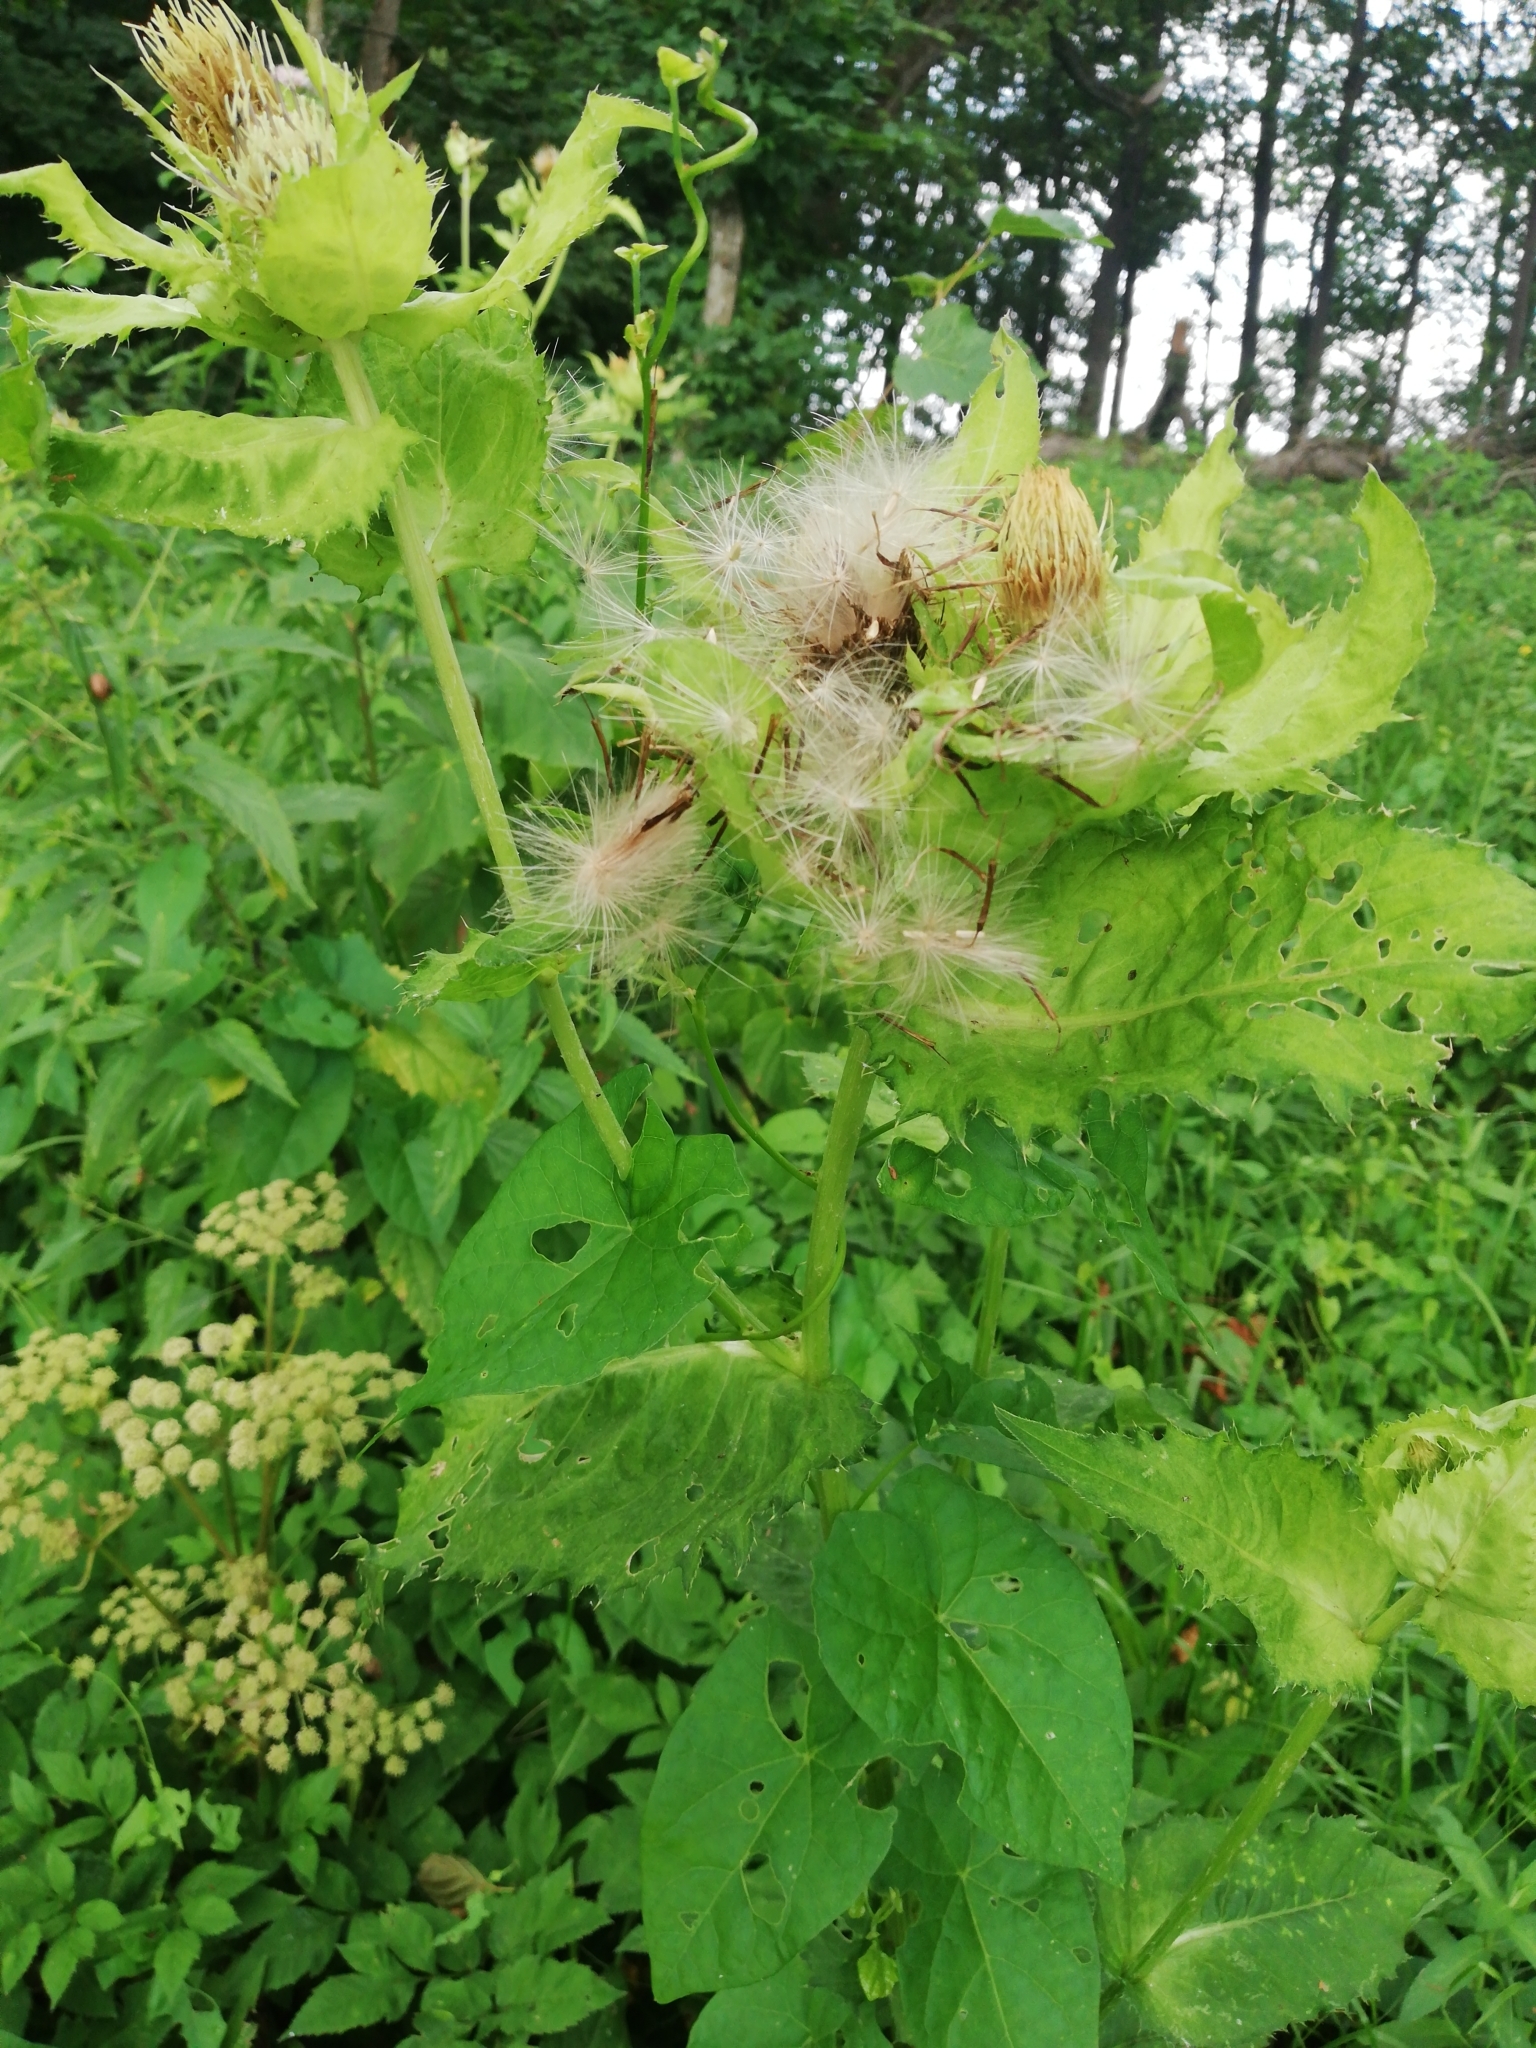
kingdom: Plantae
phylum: Tracheophyta
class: Magnoliopsida
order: Asterales
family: Asteraceae
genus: Cirsium
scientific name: Cirsium oleraceum
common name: Cabbage thistle
